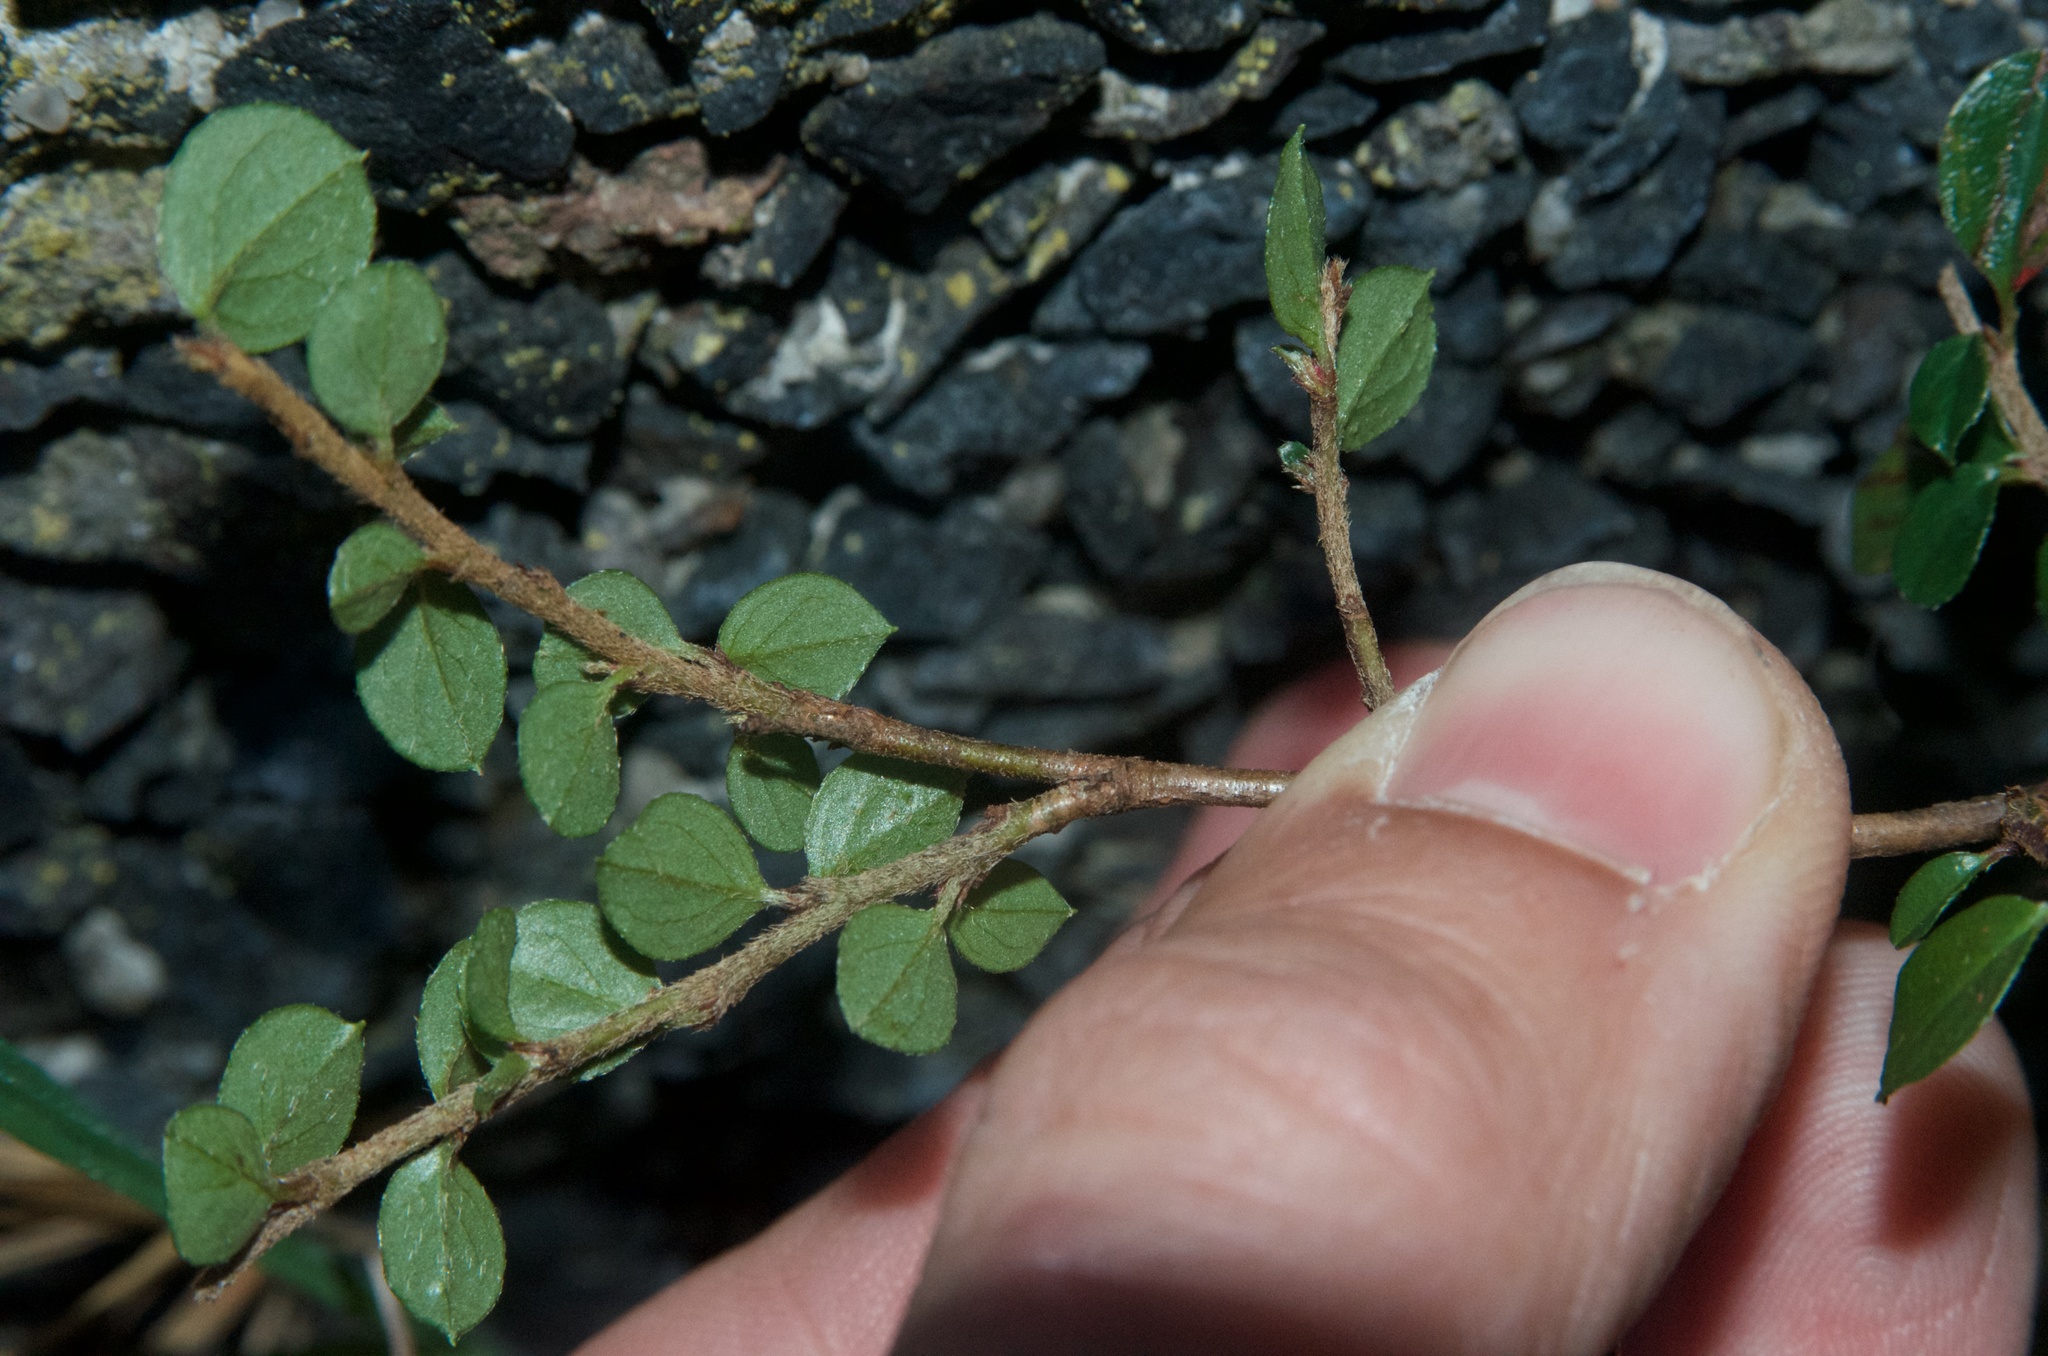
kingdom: Plantae
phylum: Tracheophyta
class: Magnoliopsida
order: Rosales
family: Rosaceae
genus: Cotoneaster
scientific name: Cotoneaster microphyllus
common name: Small-leaved cotoneaster
